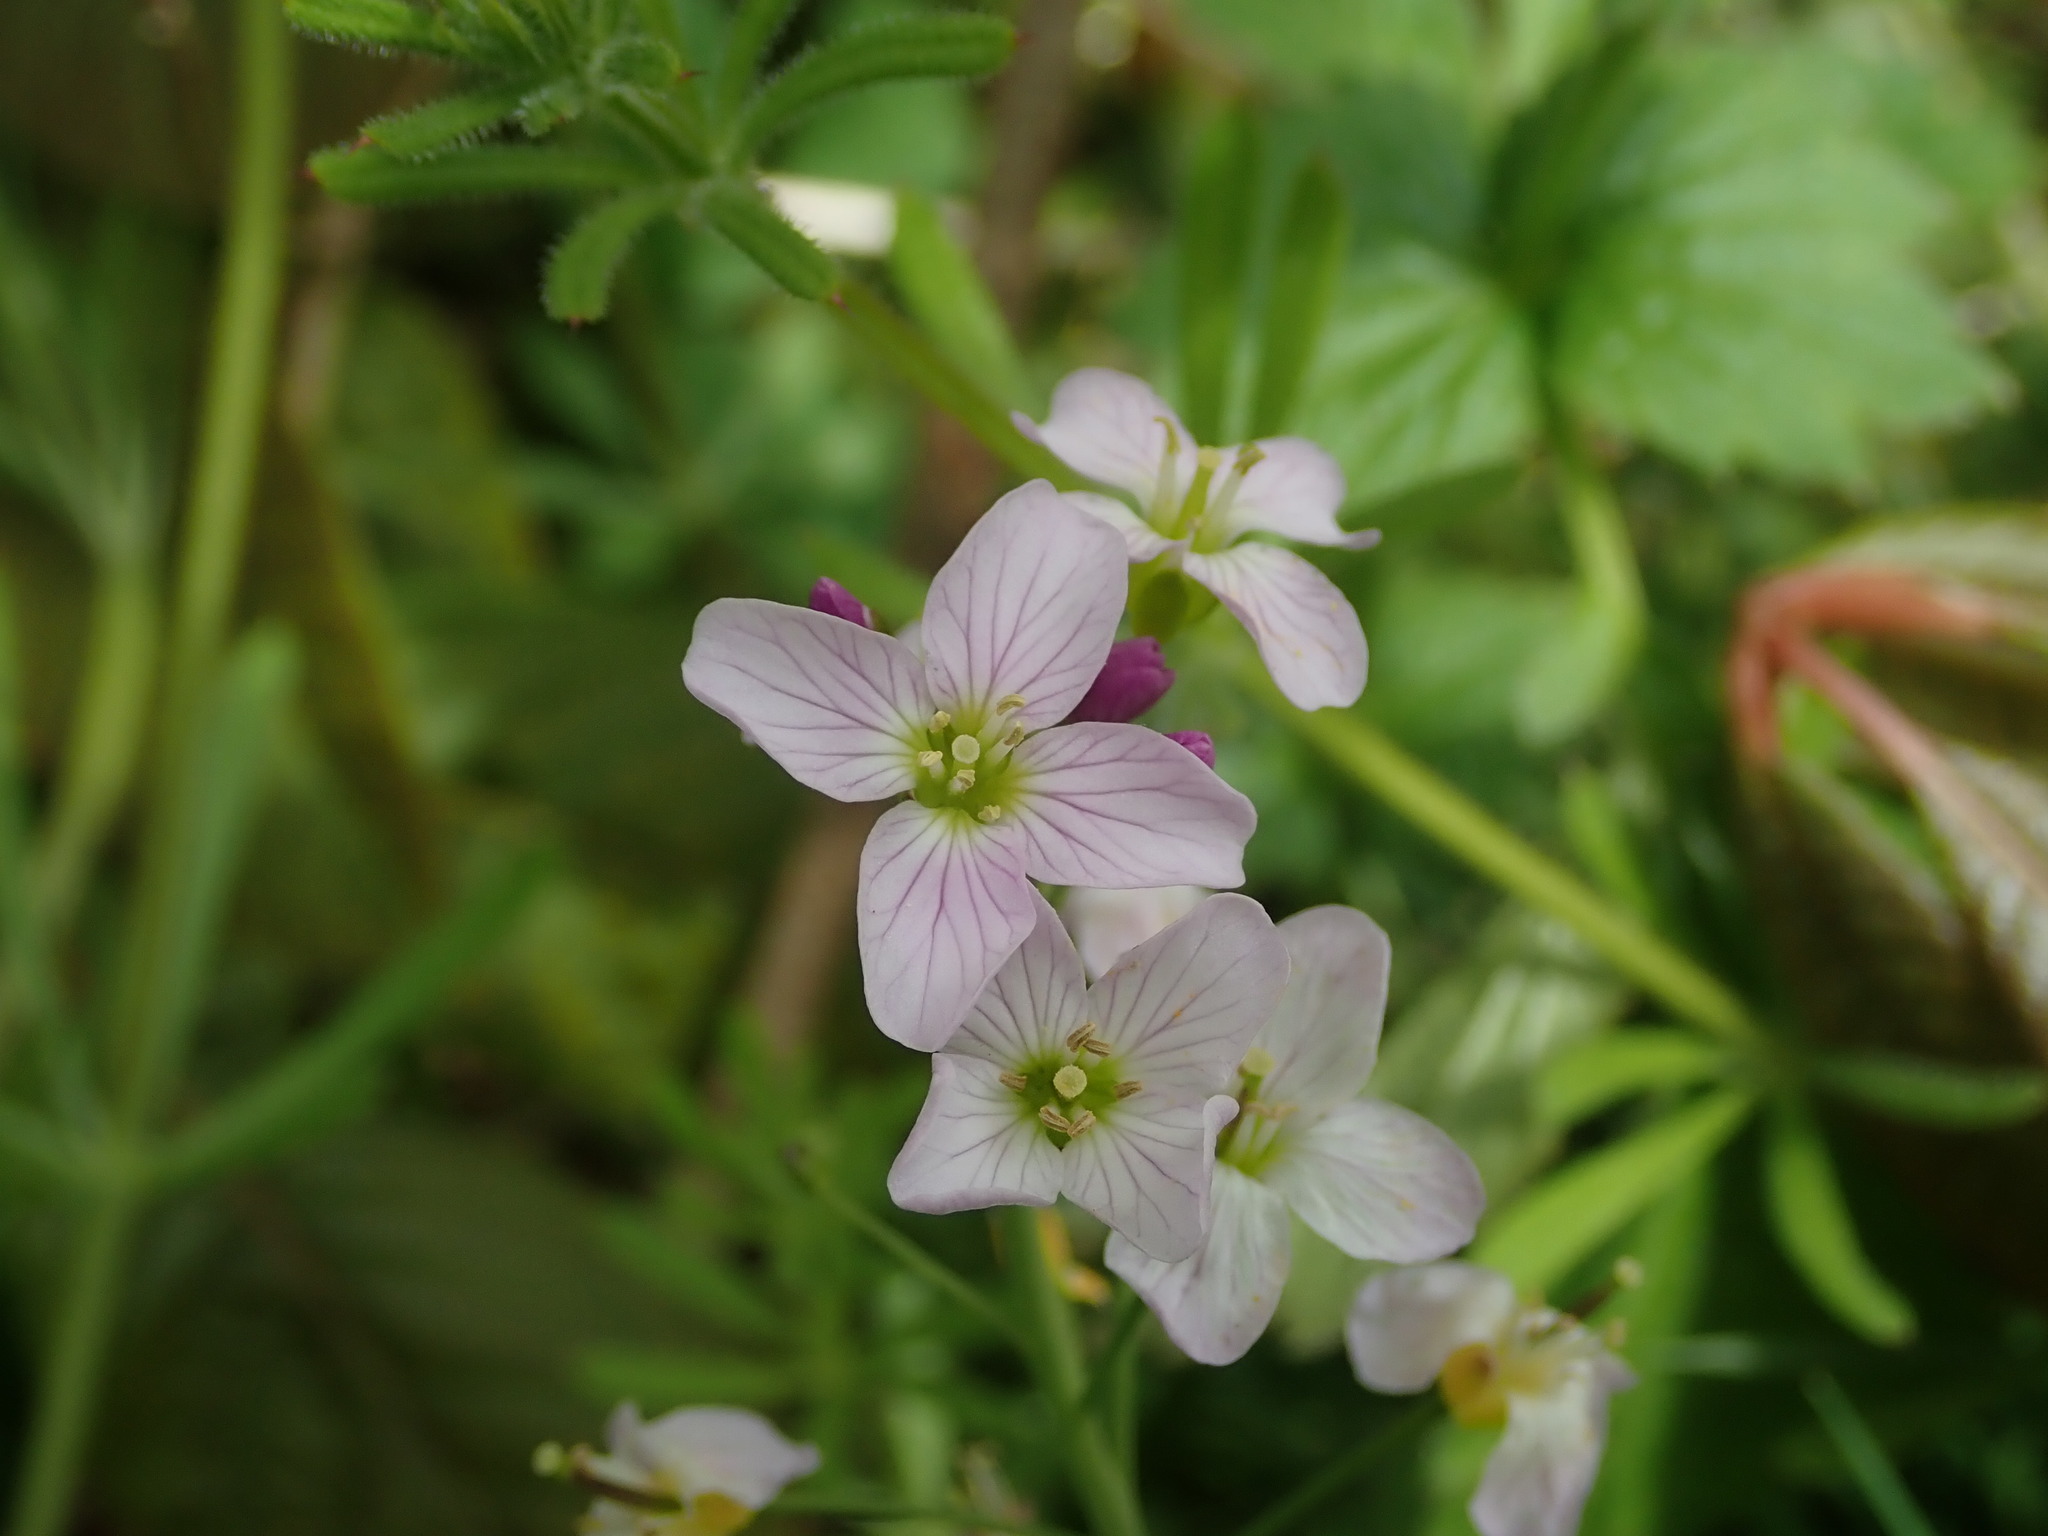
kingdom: Plantae
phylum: Tracheophyta
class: Magnoliopsida
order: Brassicales
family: Brassicaceae
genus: Cardamine
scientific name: Cardamine pratensis
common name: Cuckoo flower
